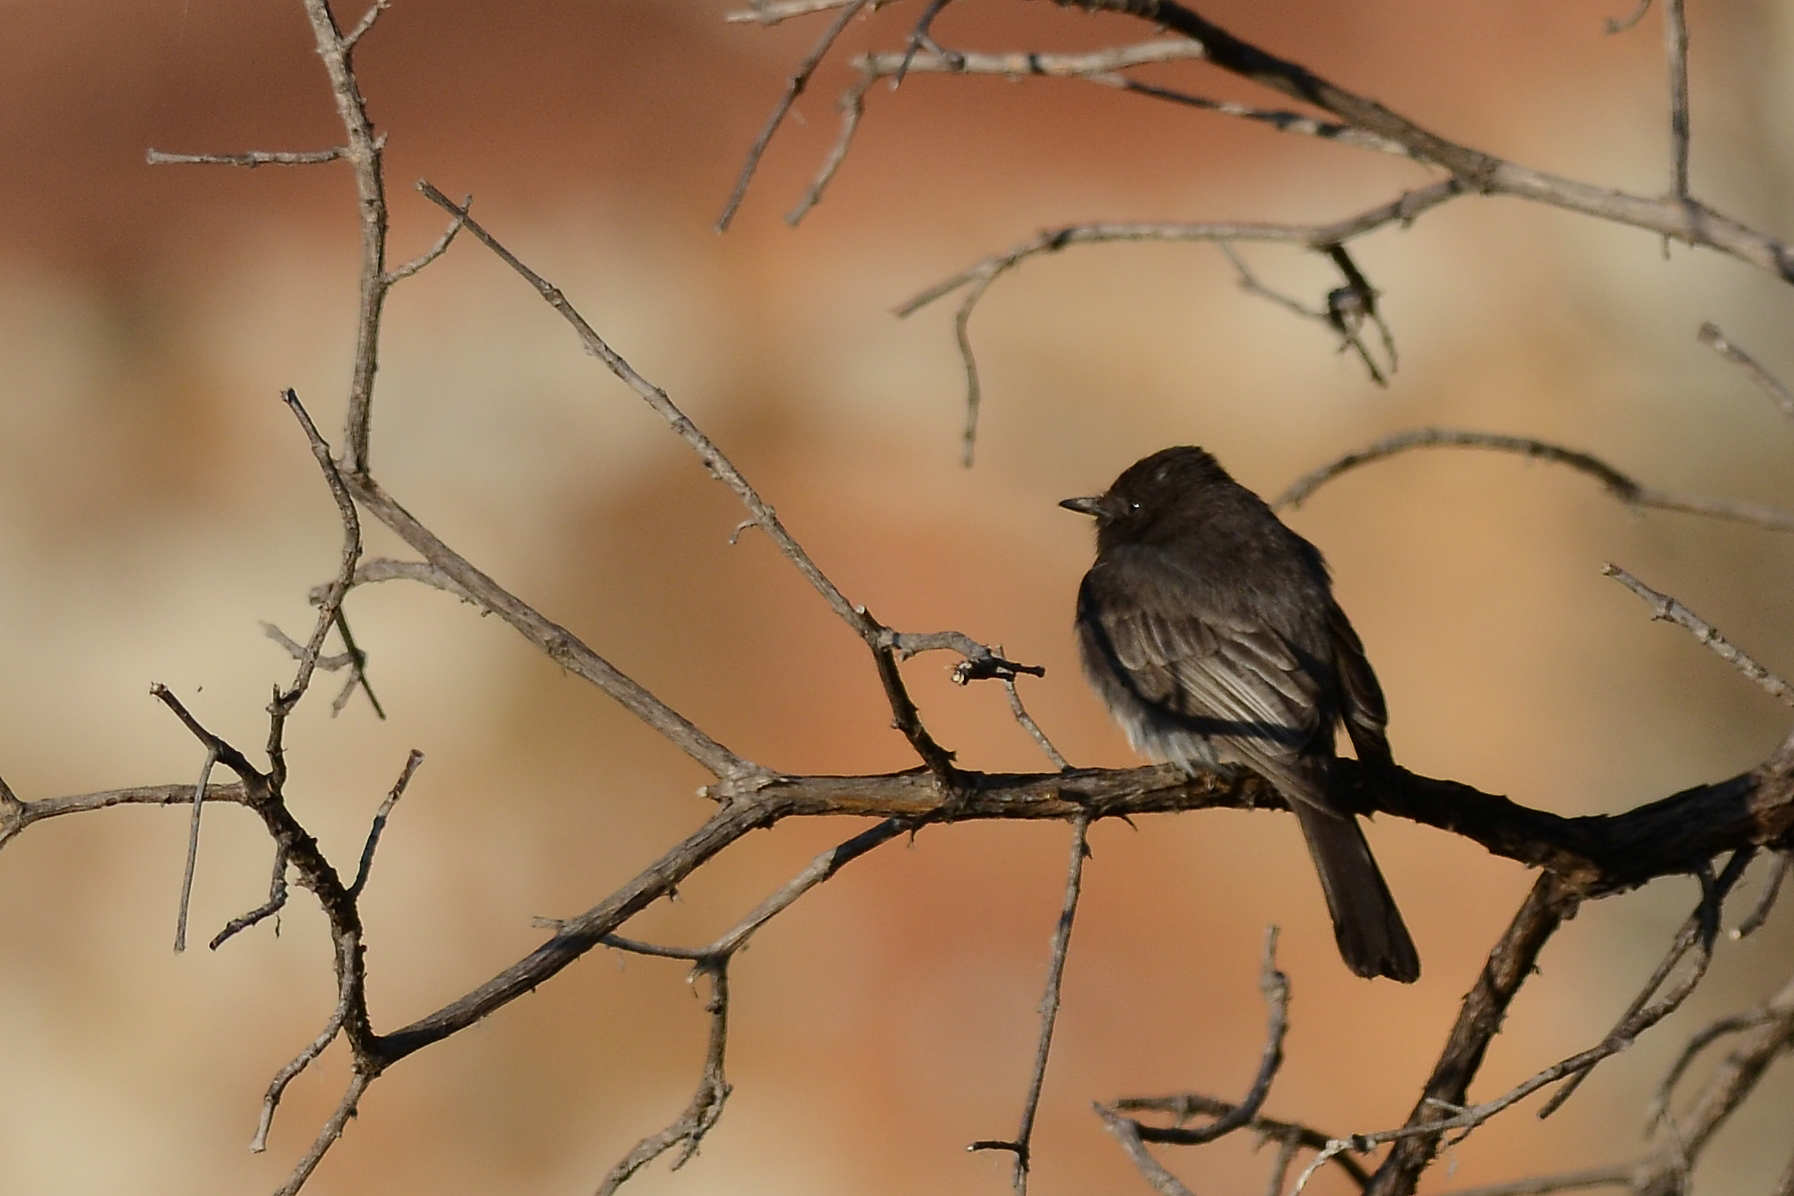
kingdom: Animalia
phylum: Chordata
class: Aves
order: Passeriformes
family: Tyrannidae
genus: Sayornis
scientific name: Sayornis nigricans
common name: Black phoebe
